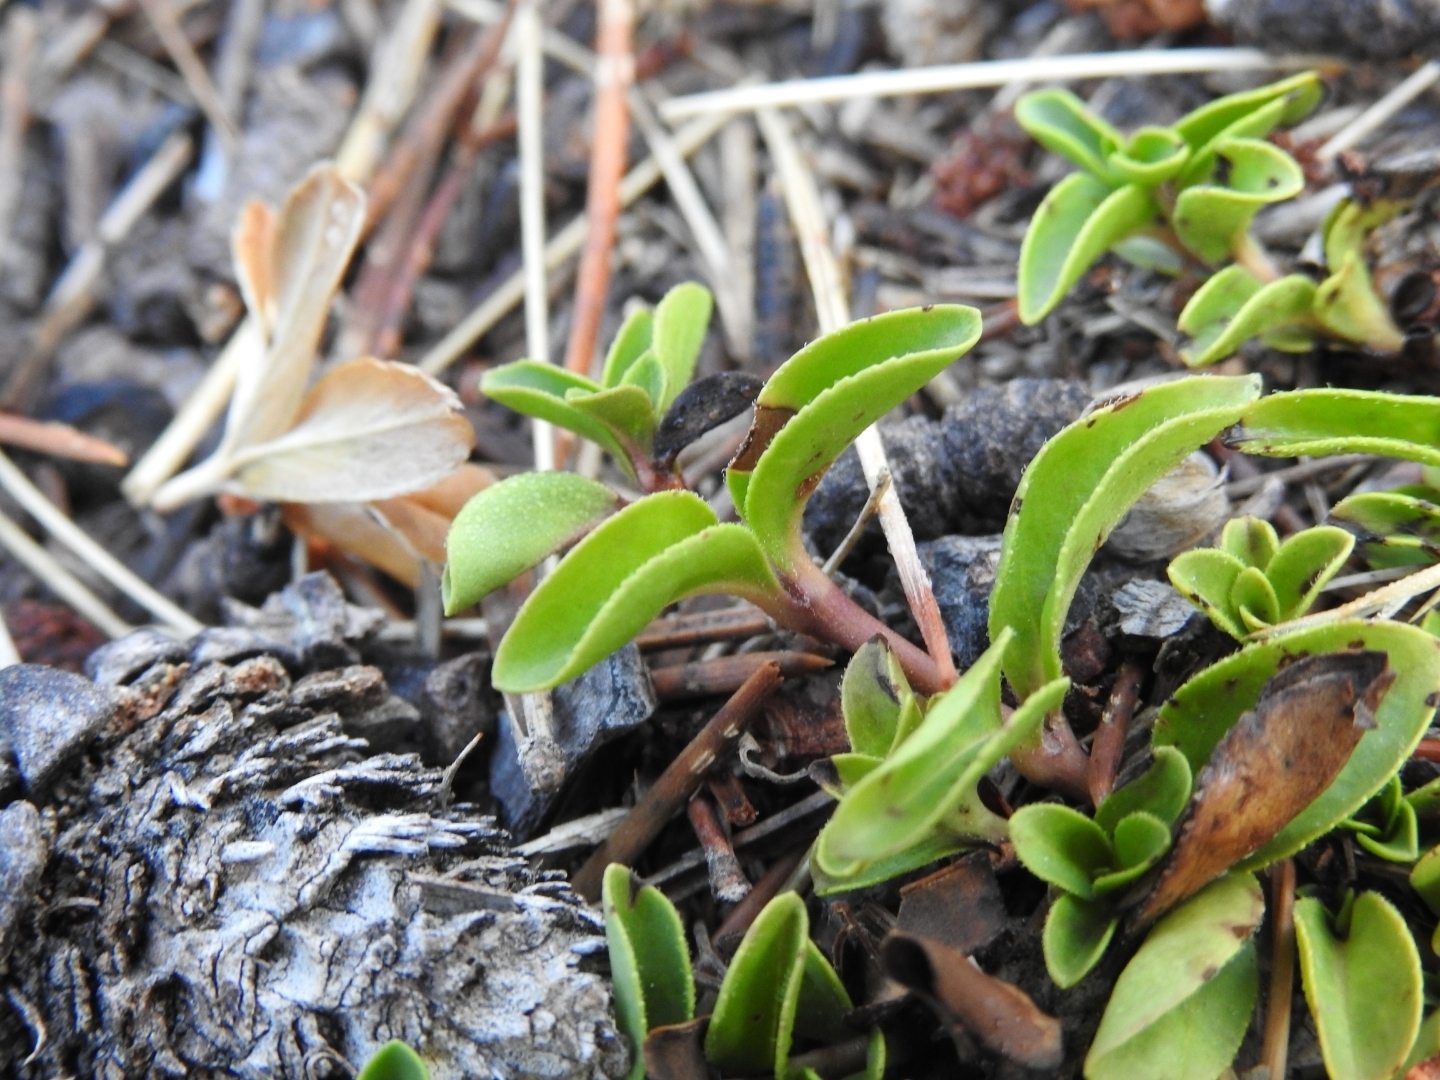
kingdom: Plantae
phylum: Tracheophyta
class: Magnoliopsida
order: Lamiales
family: Plantaginaceae
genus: Veronica
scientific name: Veronica allionii
